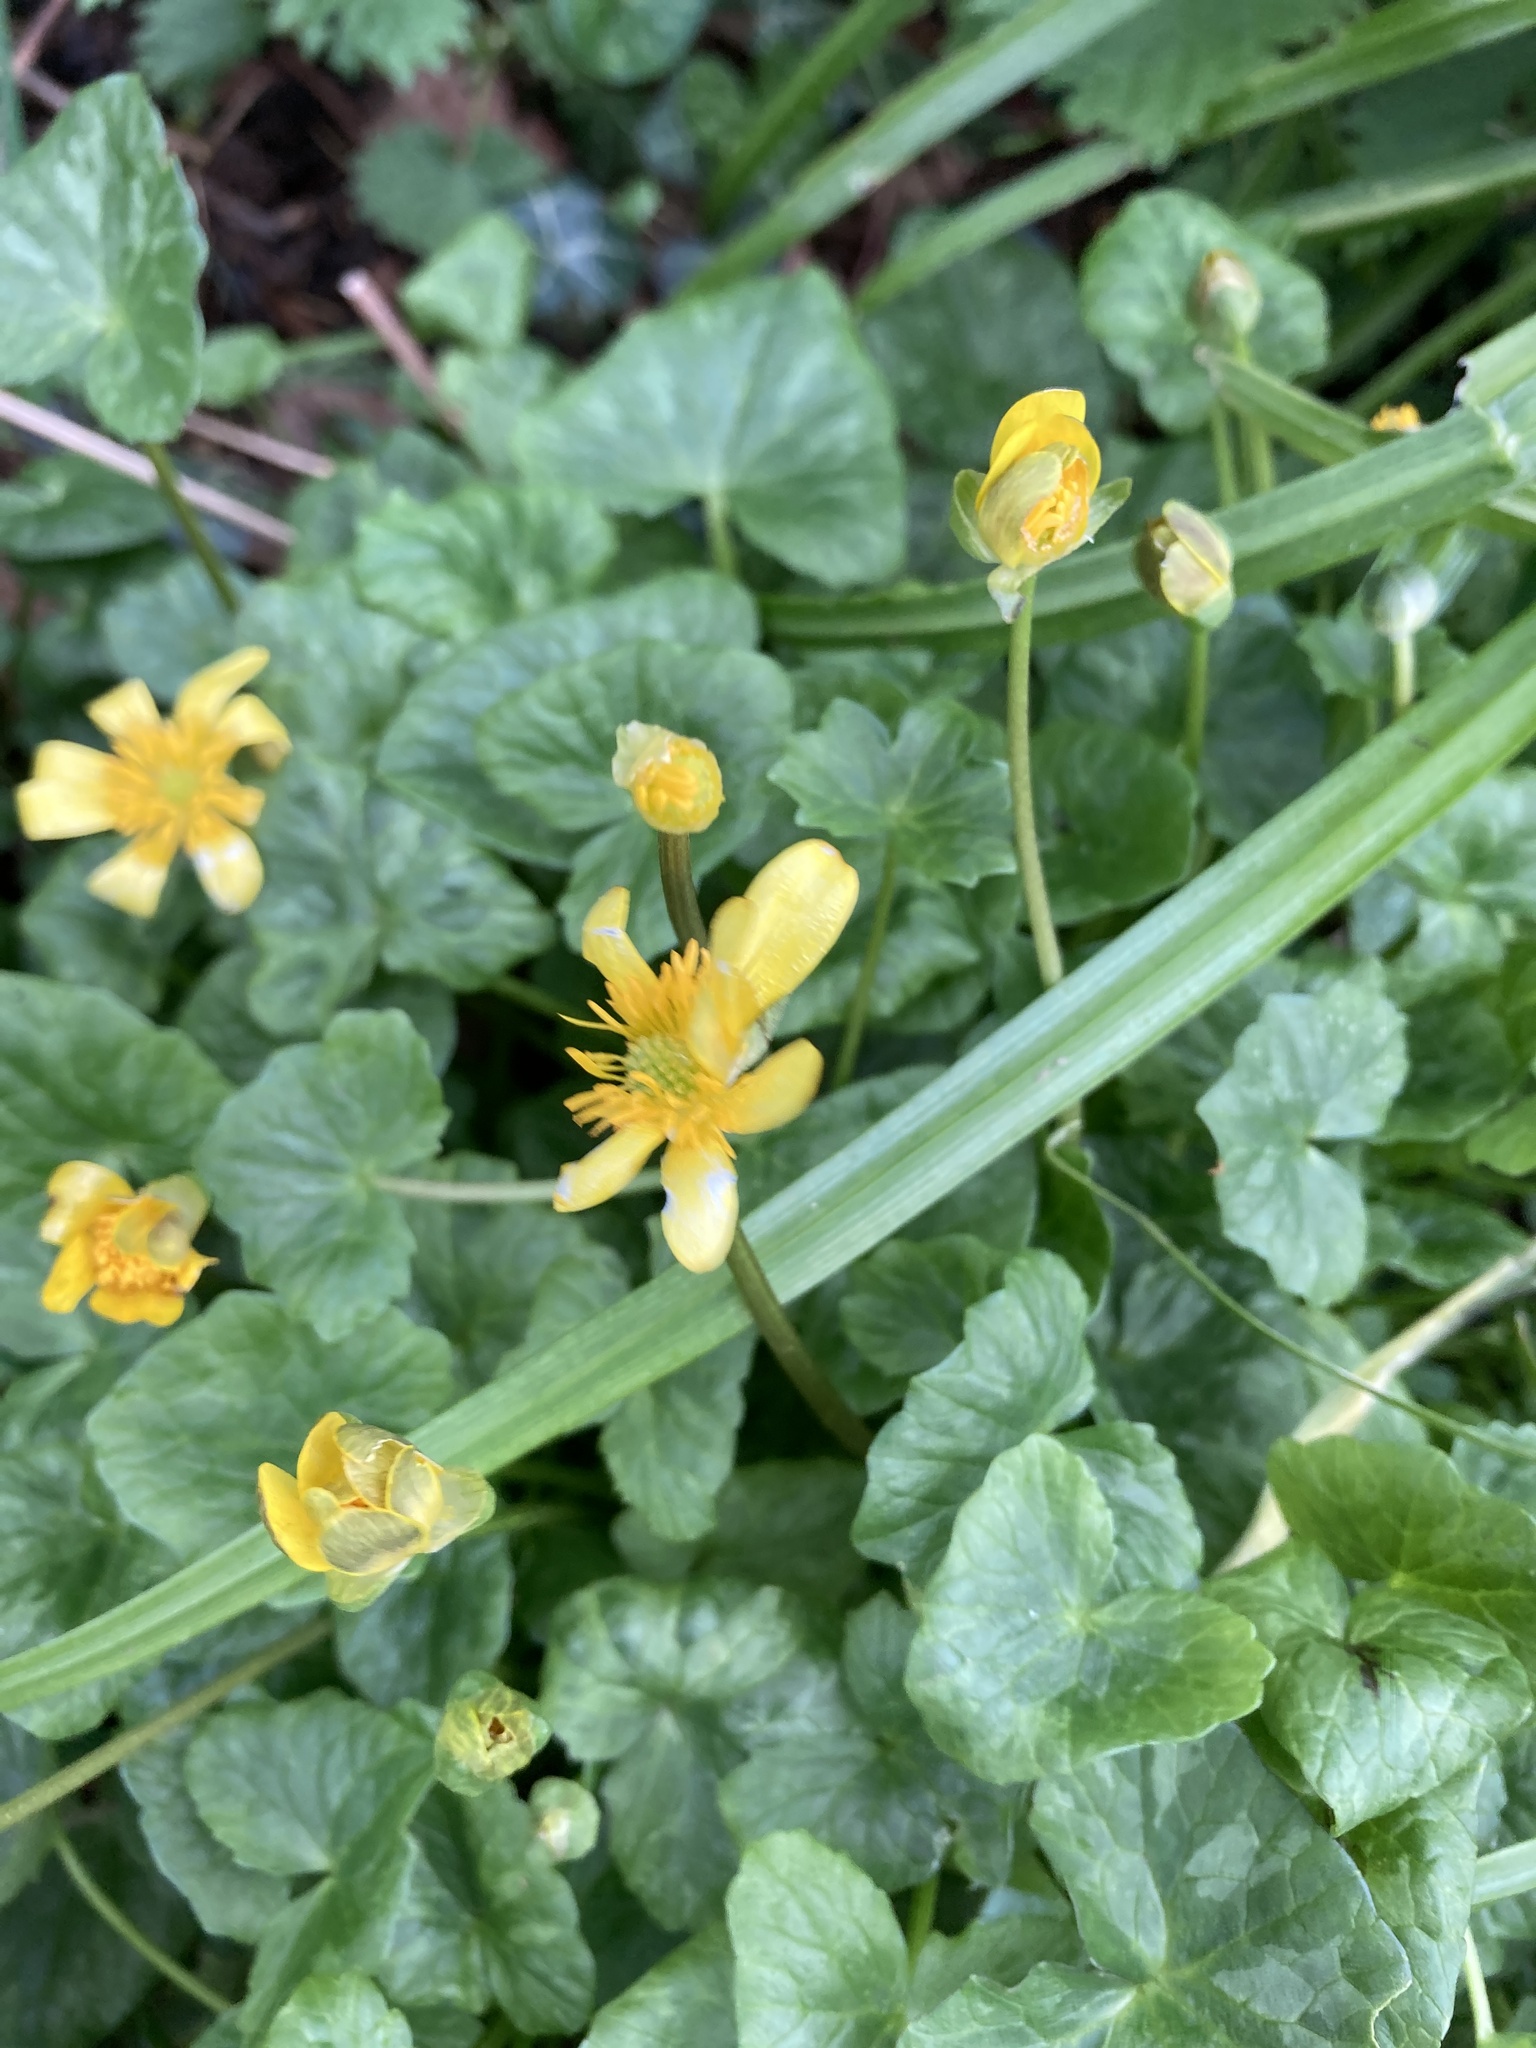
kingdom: Plantae
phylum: Tracheophyta
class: Magnoliopsida
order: Ranunculales
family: Ranunculaceae
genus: Ficaria
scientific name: Ficaria verna
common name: Lesser celandine
